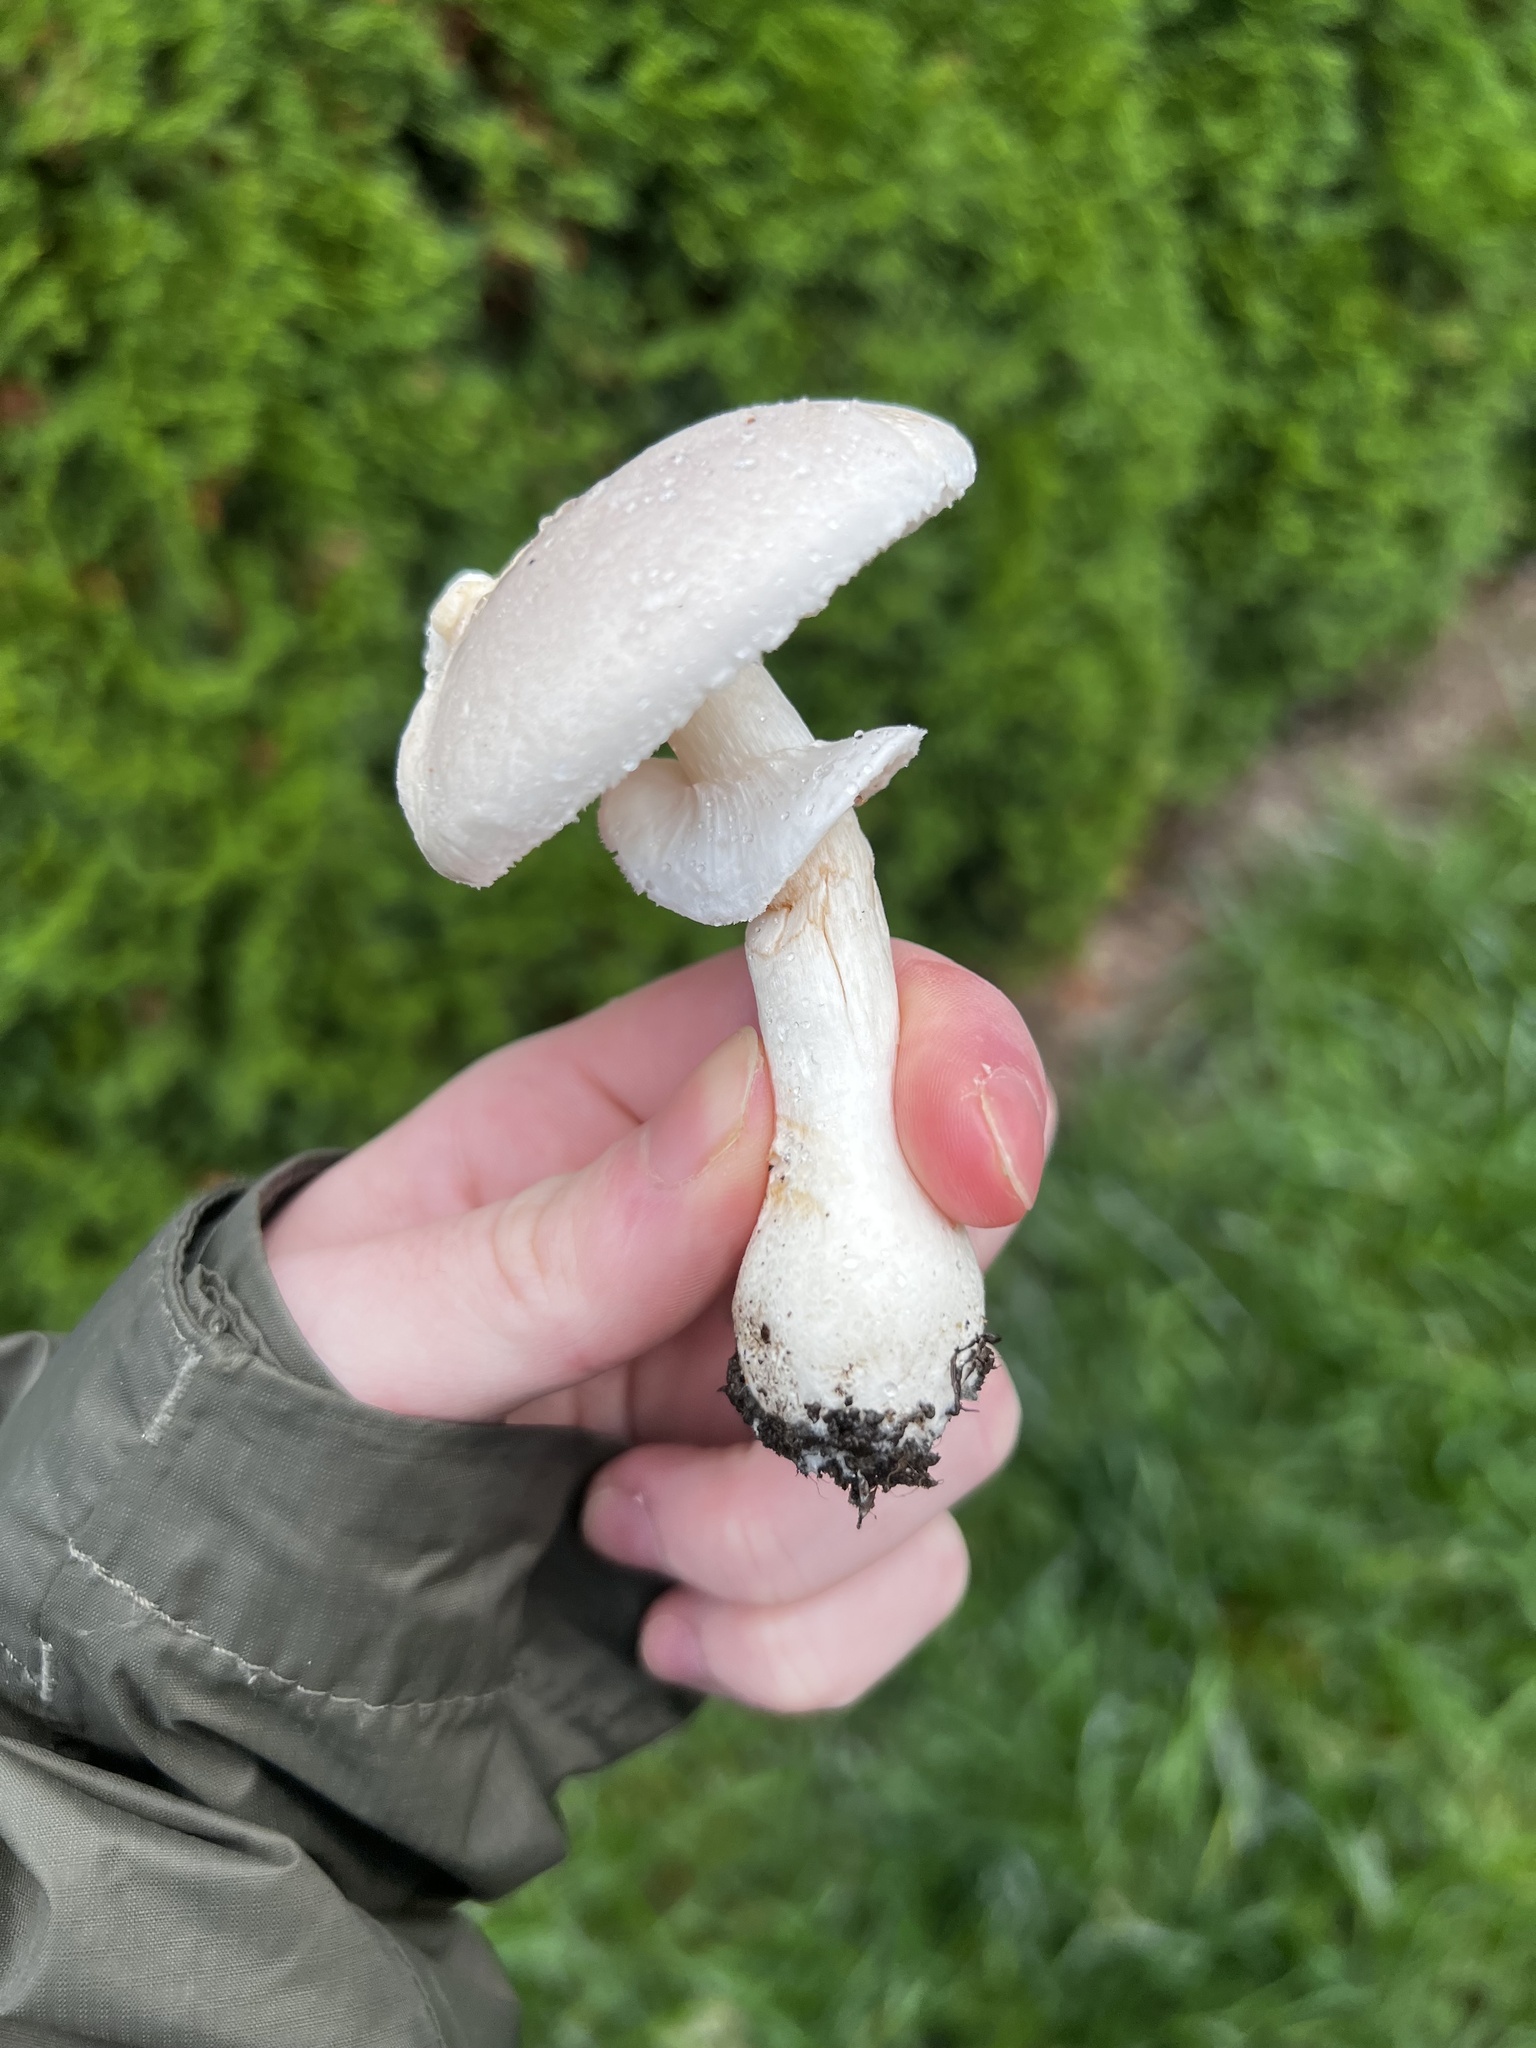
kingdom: Fungi
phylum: Basidiomycota
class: Agaricomycetes
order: Agaricales
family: Agaricaceae
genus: Leucoagaricus
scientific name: Leucoagaricus leucothites
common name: White dapperling
